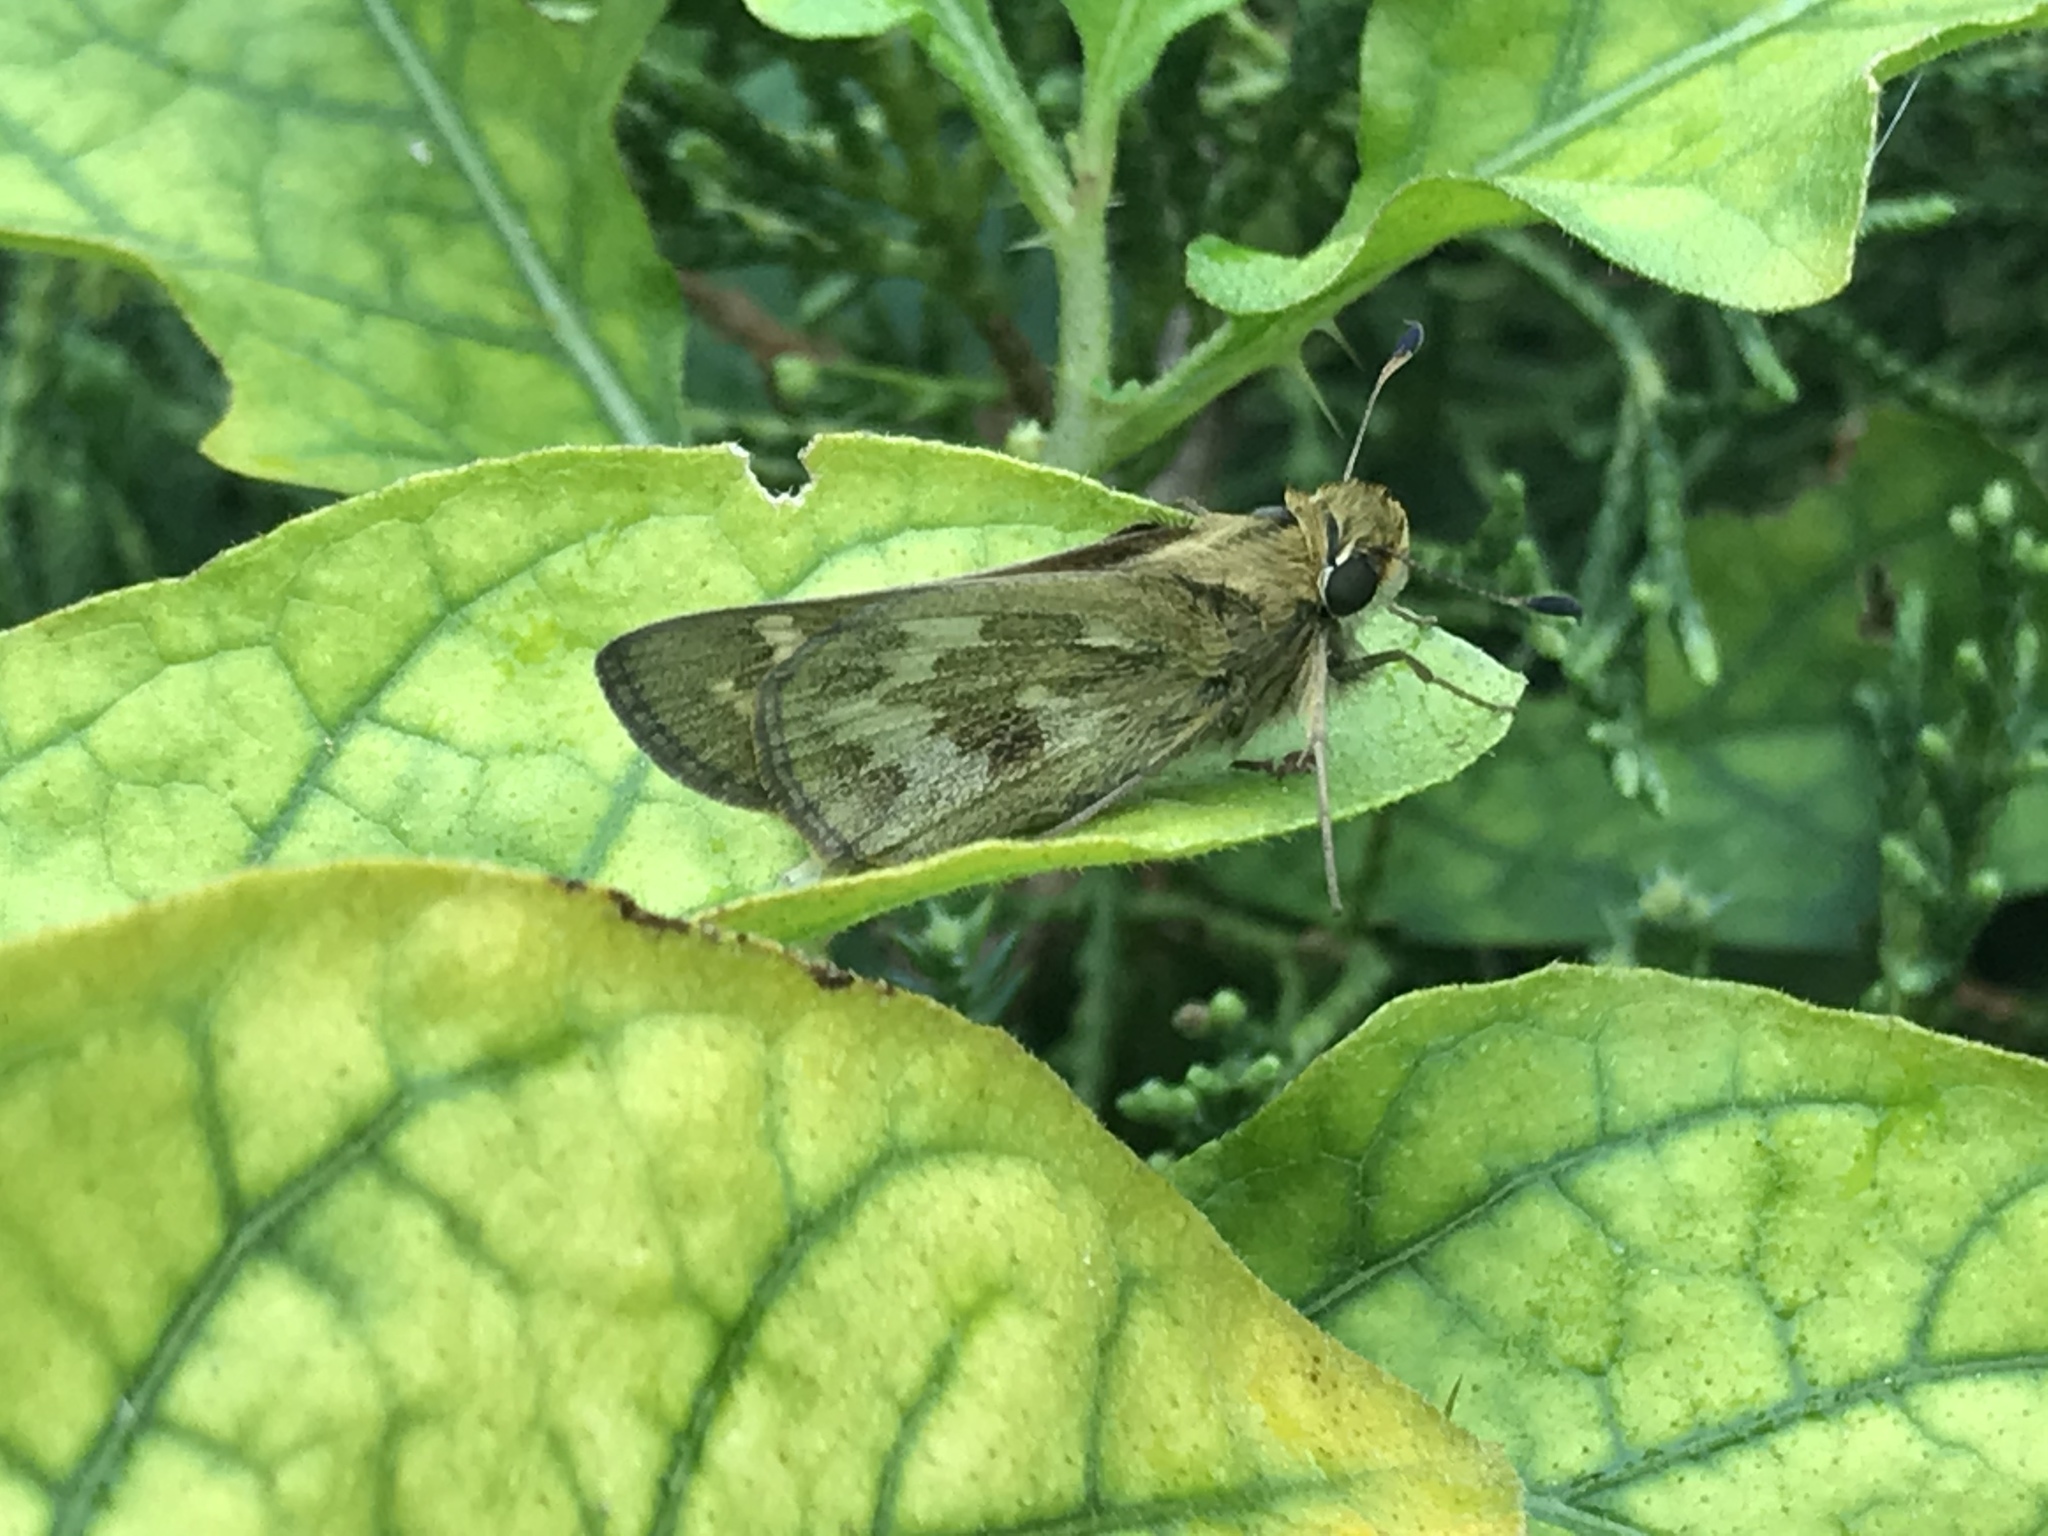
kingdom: Animalia
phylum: Arthropoda
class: Insecta
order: Lepidoptera
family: Hesperiidae
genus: Atalopedes
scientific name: Atalopedes
